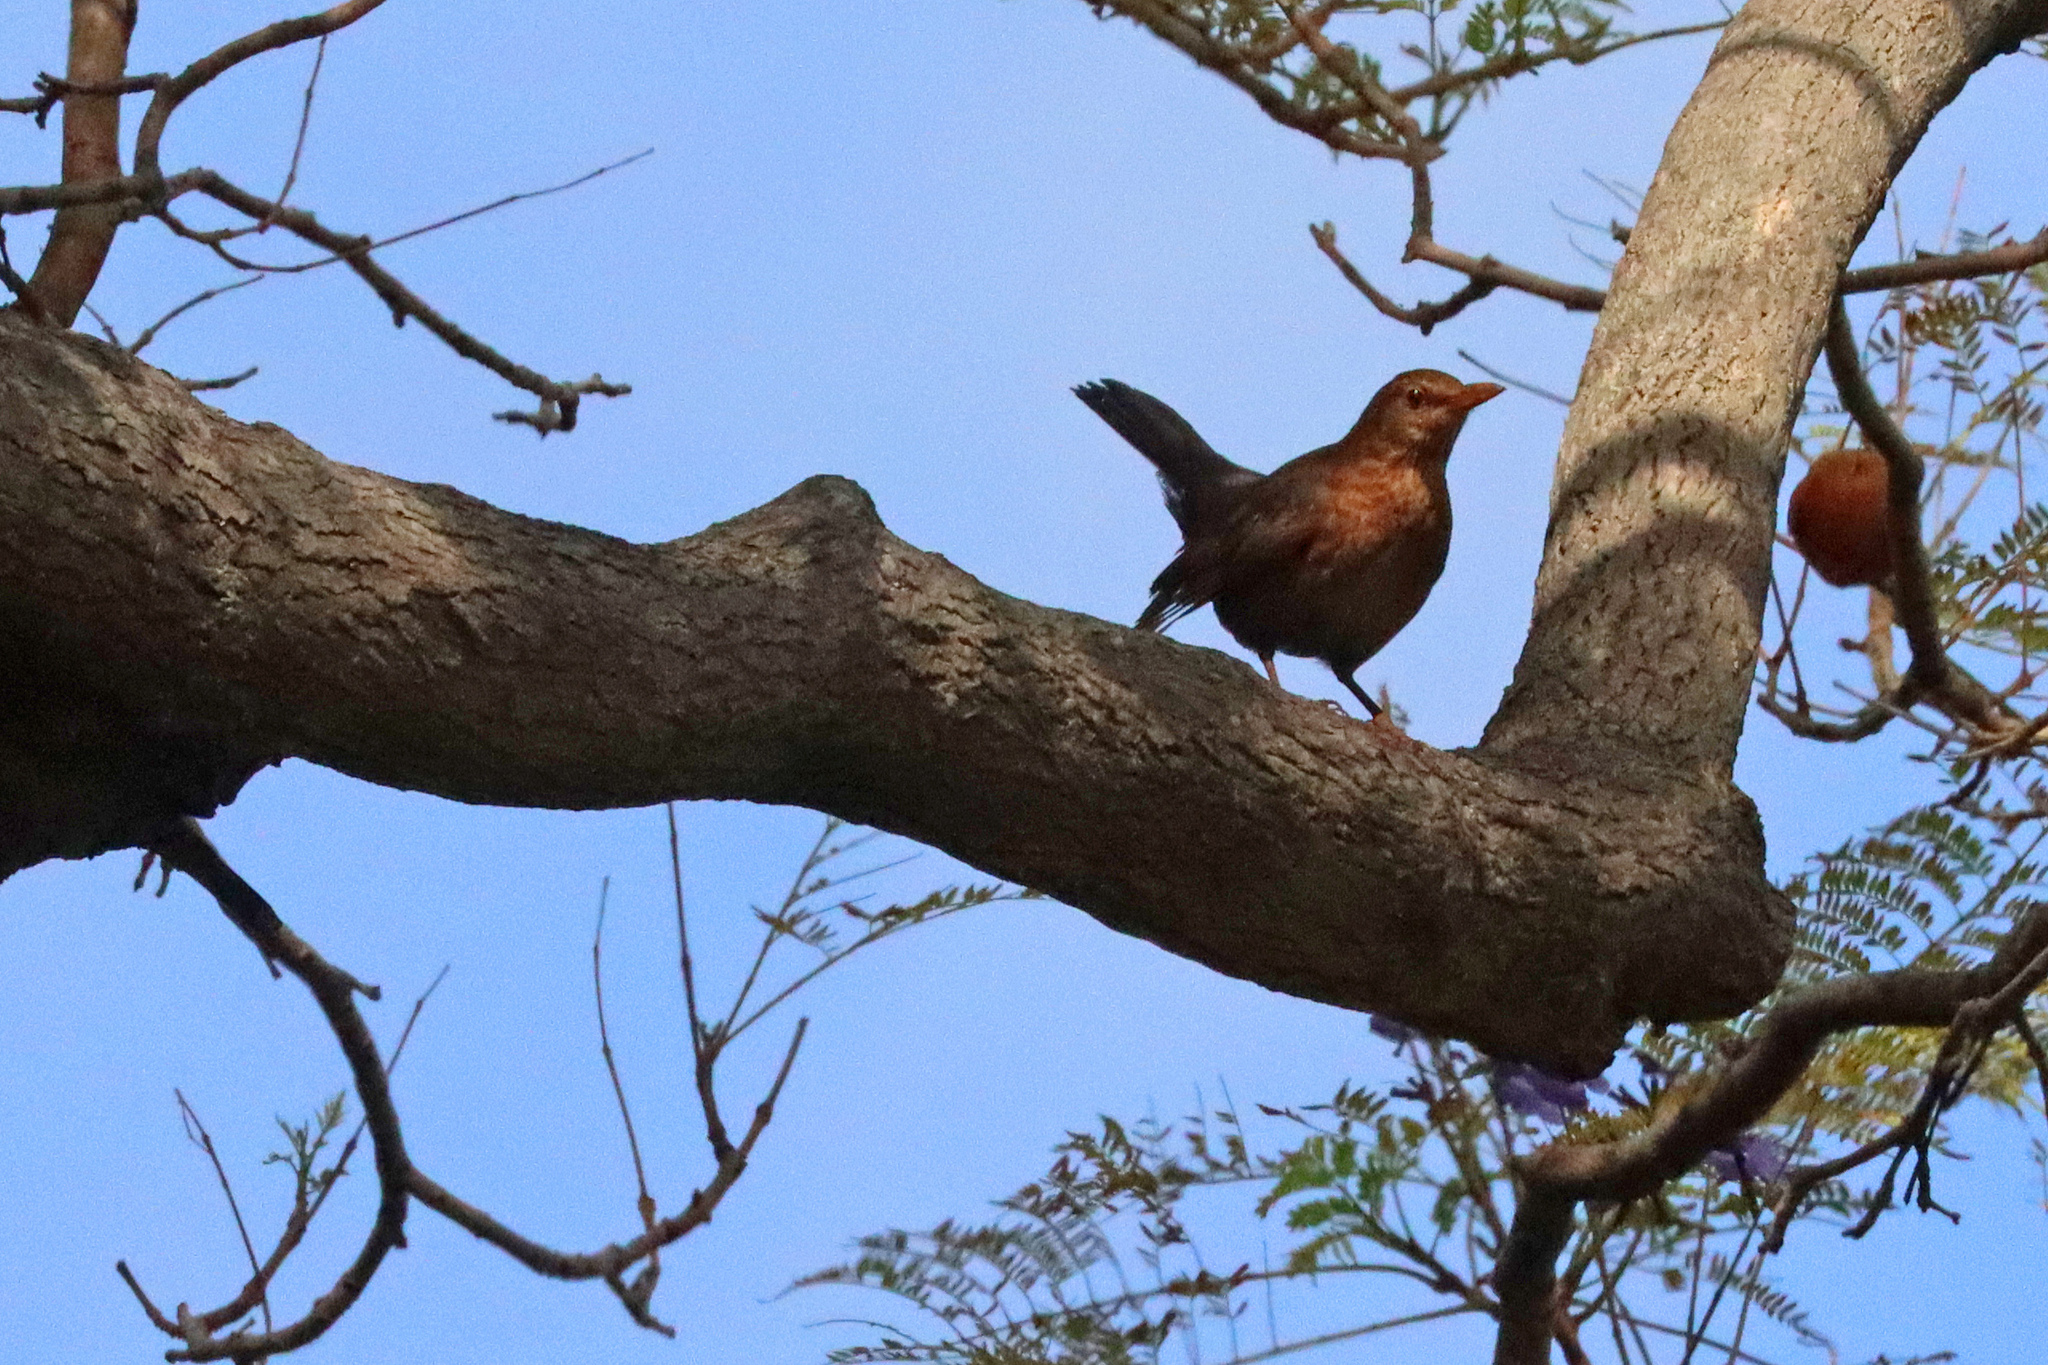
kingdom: Animalia
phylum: Chordata
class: Aves
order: Passeriformes
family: Turdidae
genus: Turdus
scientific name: Turdus merula
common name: Common blackbird
